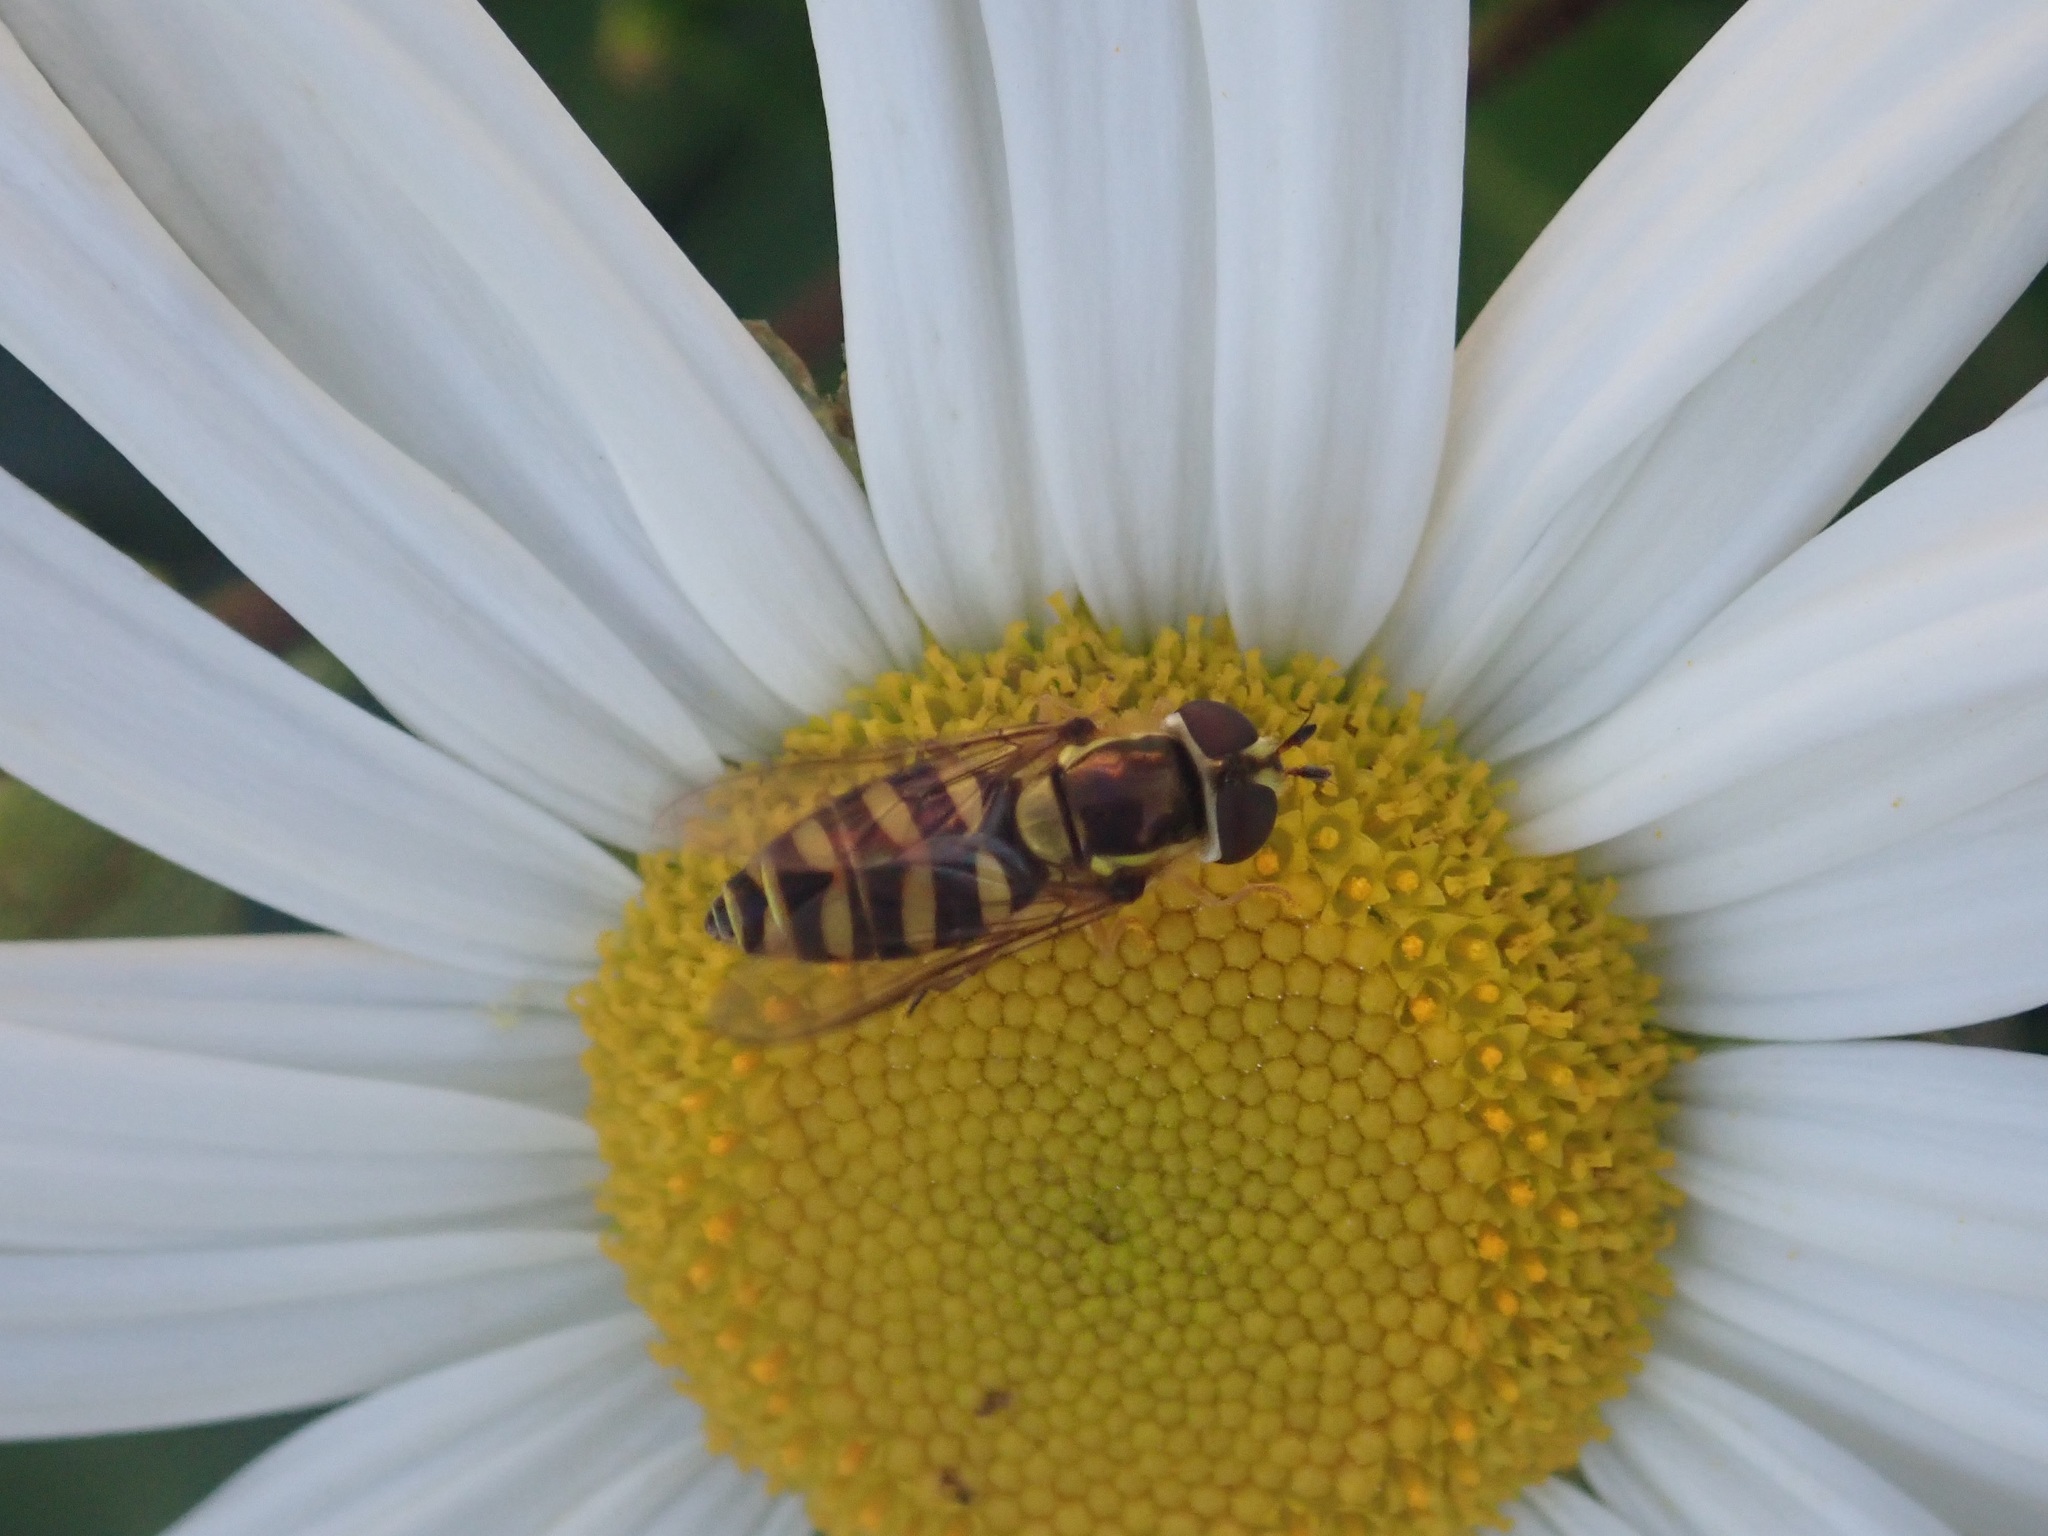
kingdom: Animalia
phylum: Arthropoda
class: Insecta
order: Diptera
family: Syrphidae
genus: Epistrophella
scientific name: Epistrophella emarginata
